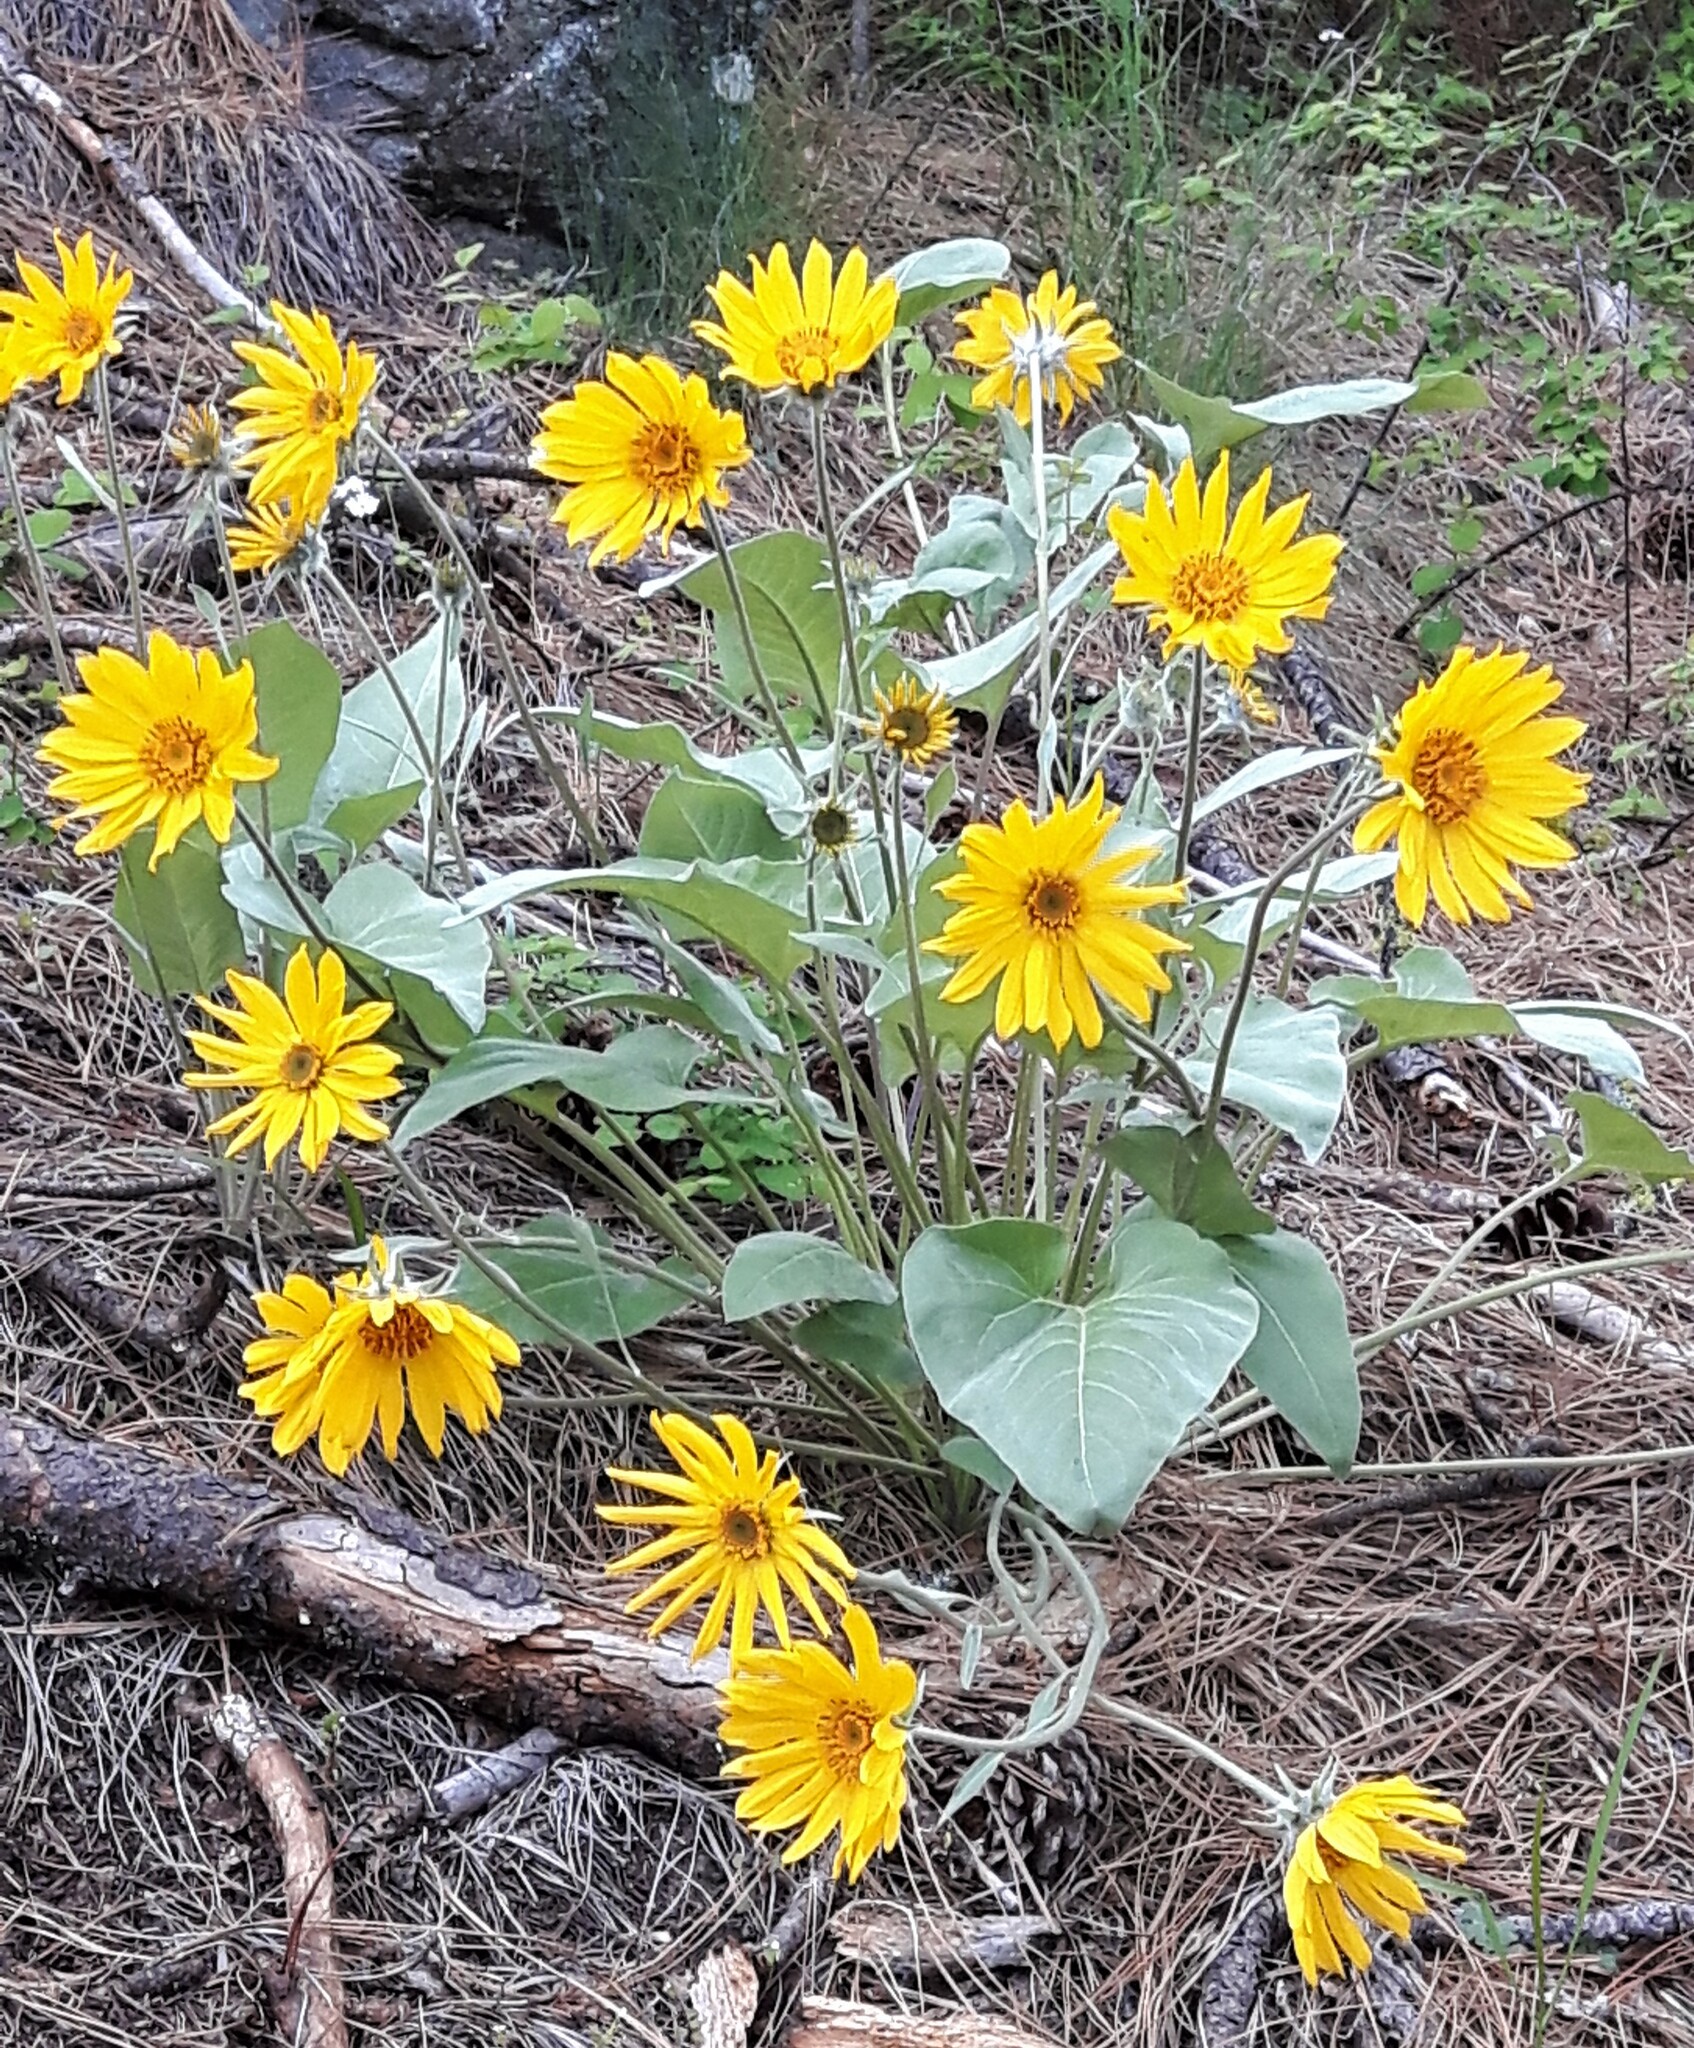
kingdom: Plantae
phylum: Tracheophyta
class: Magnoliopsida
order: Asterales
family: Asteraceae
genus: Wyethia
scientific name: Wyethia sagittata
